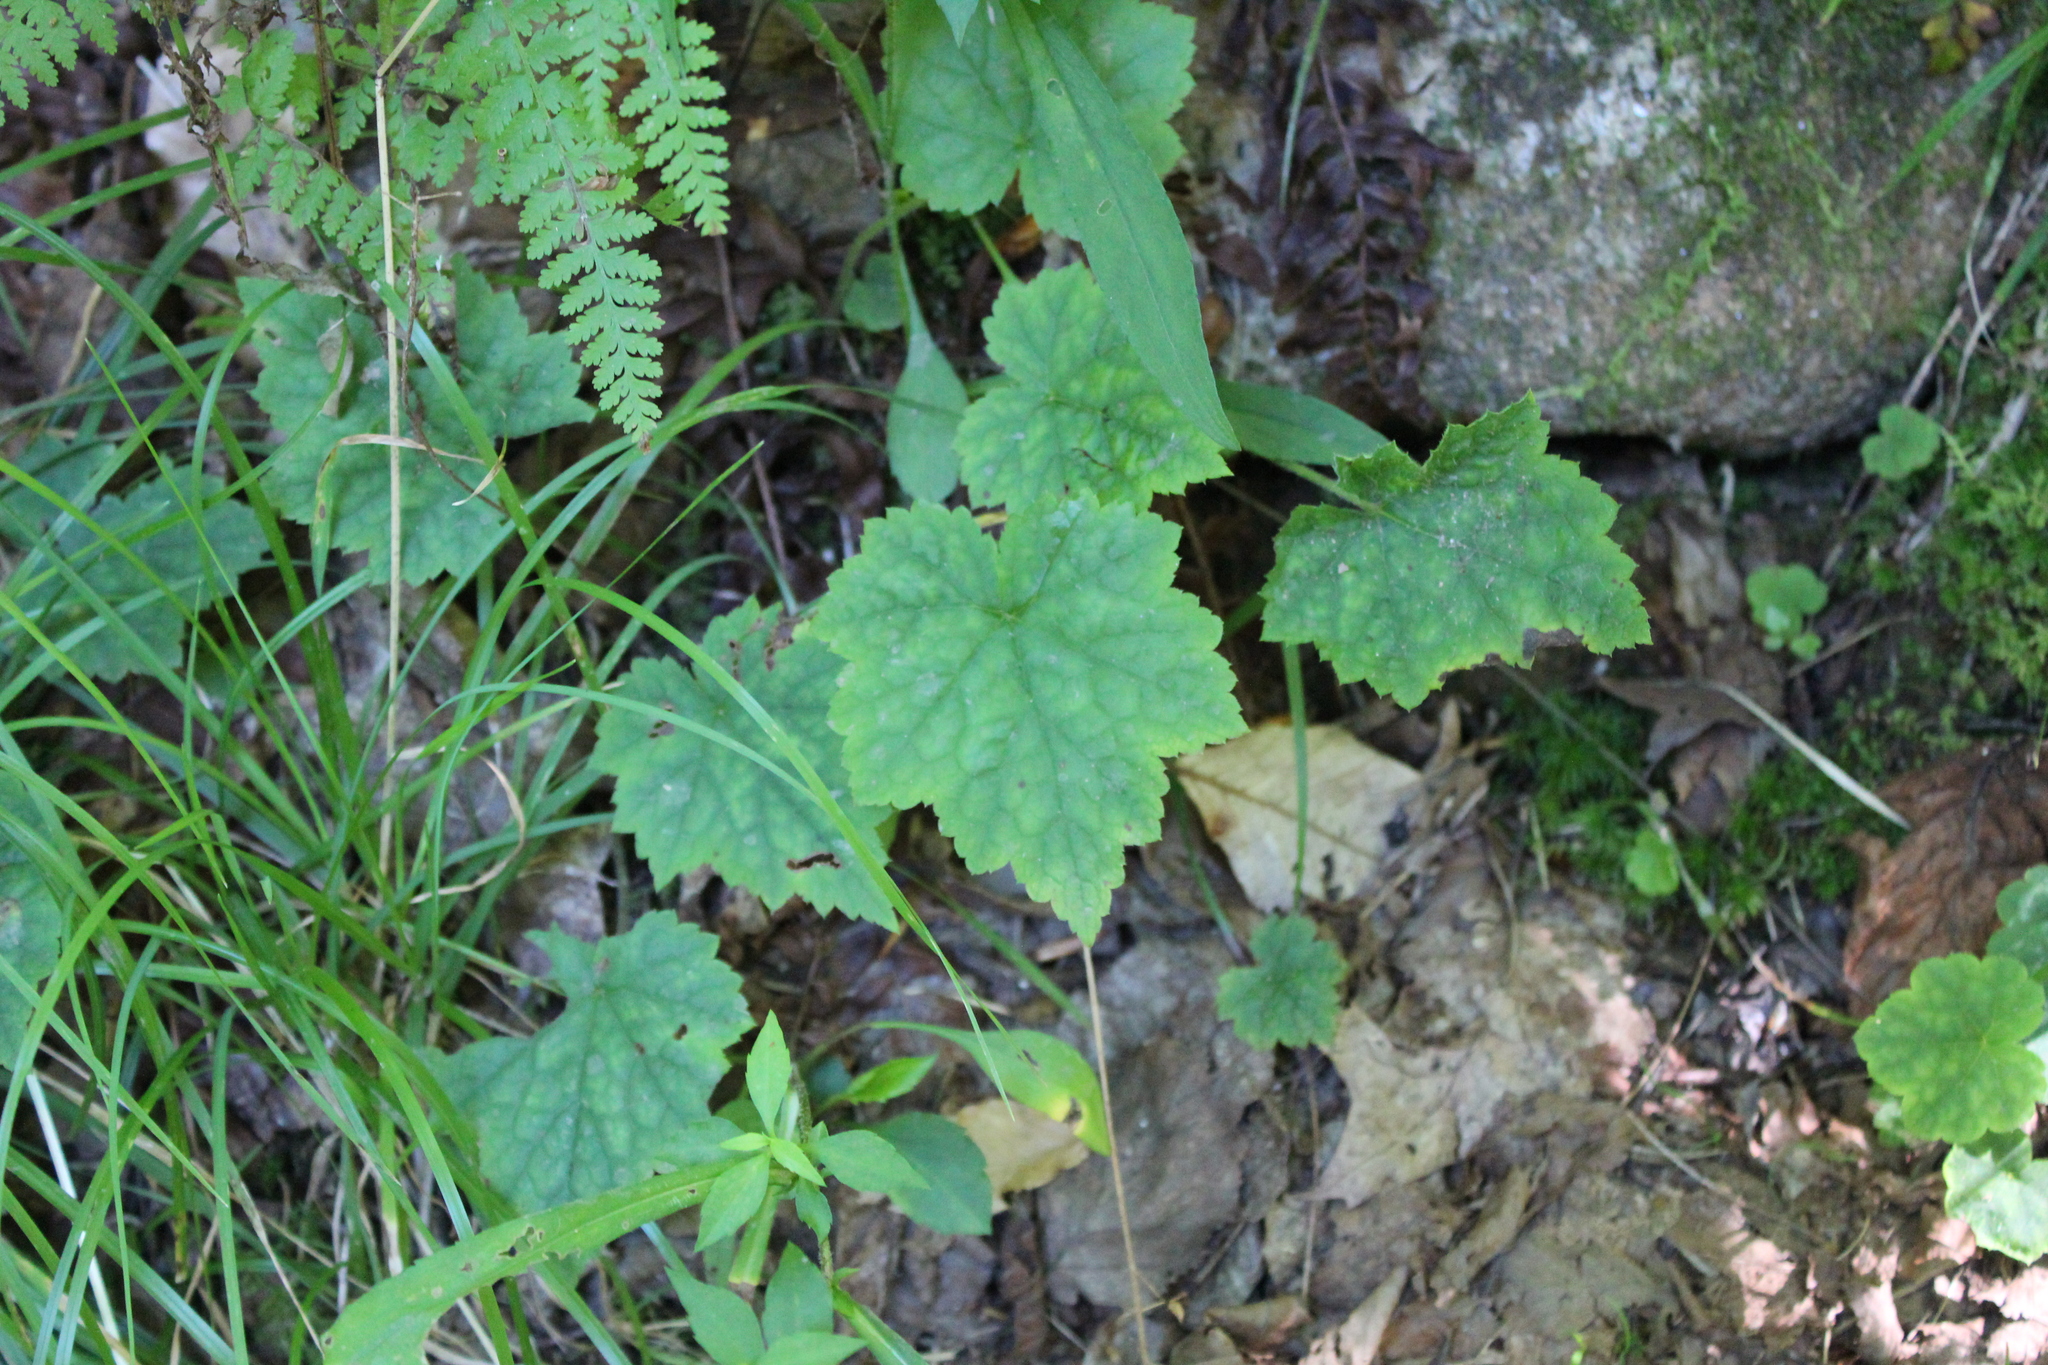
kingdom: Plantae
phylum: Tracheophyta
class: Magnoliopsida
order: Saxifragales
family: Saxifragaceae
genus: Tiarella
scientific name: Tiarella stolonifera
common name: Stoloniferous foamflower
